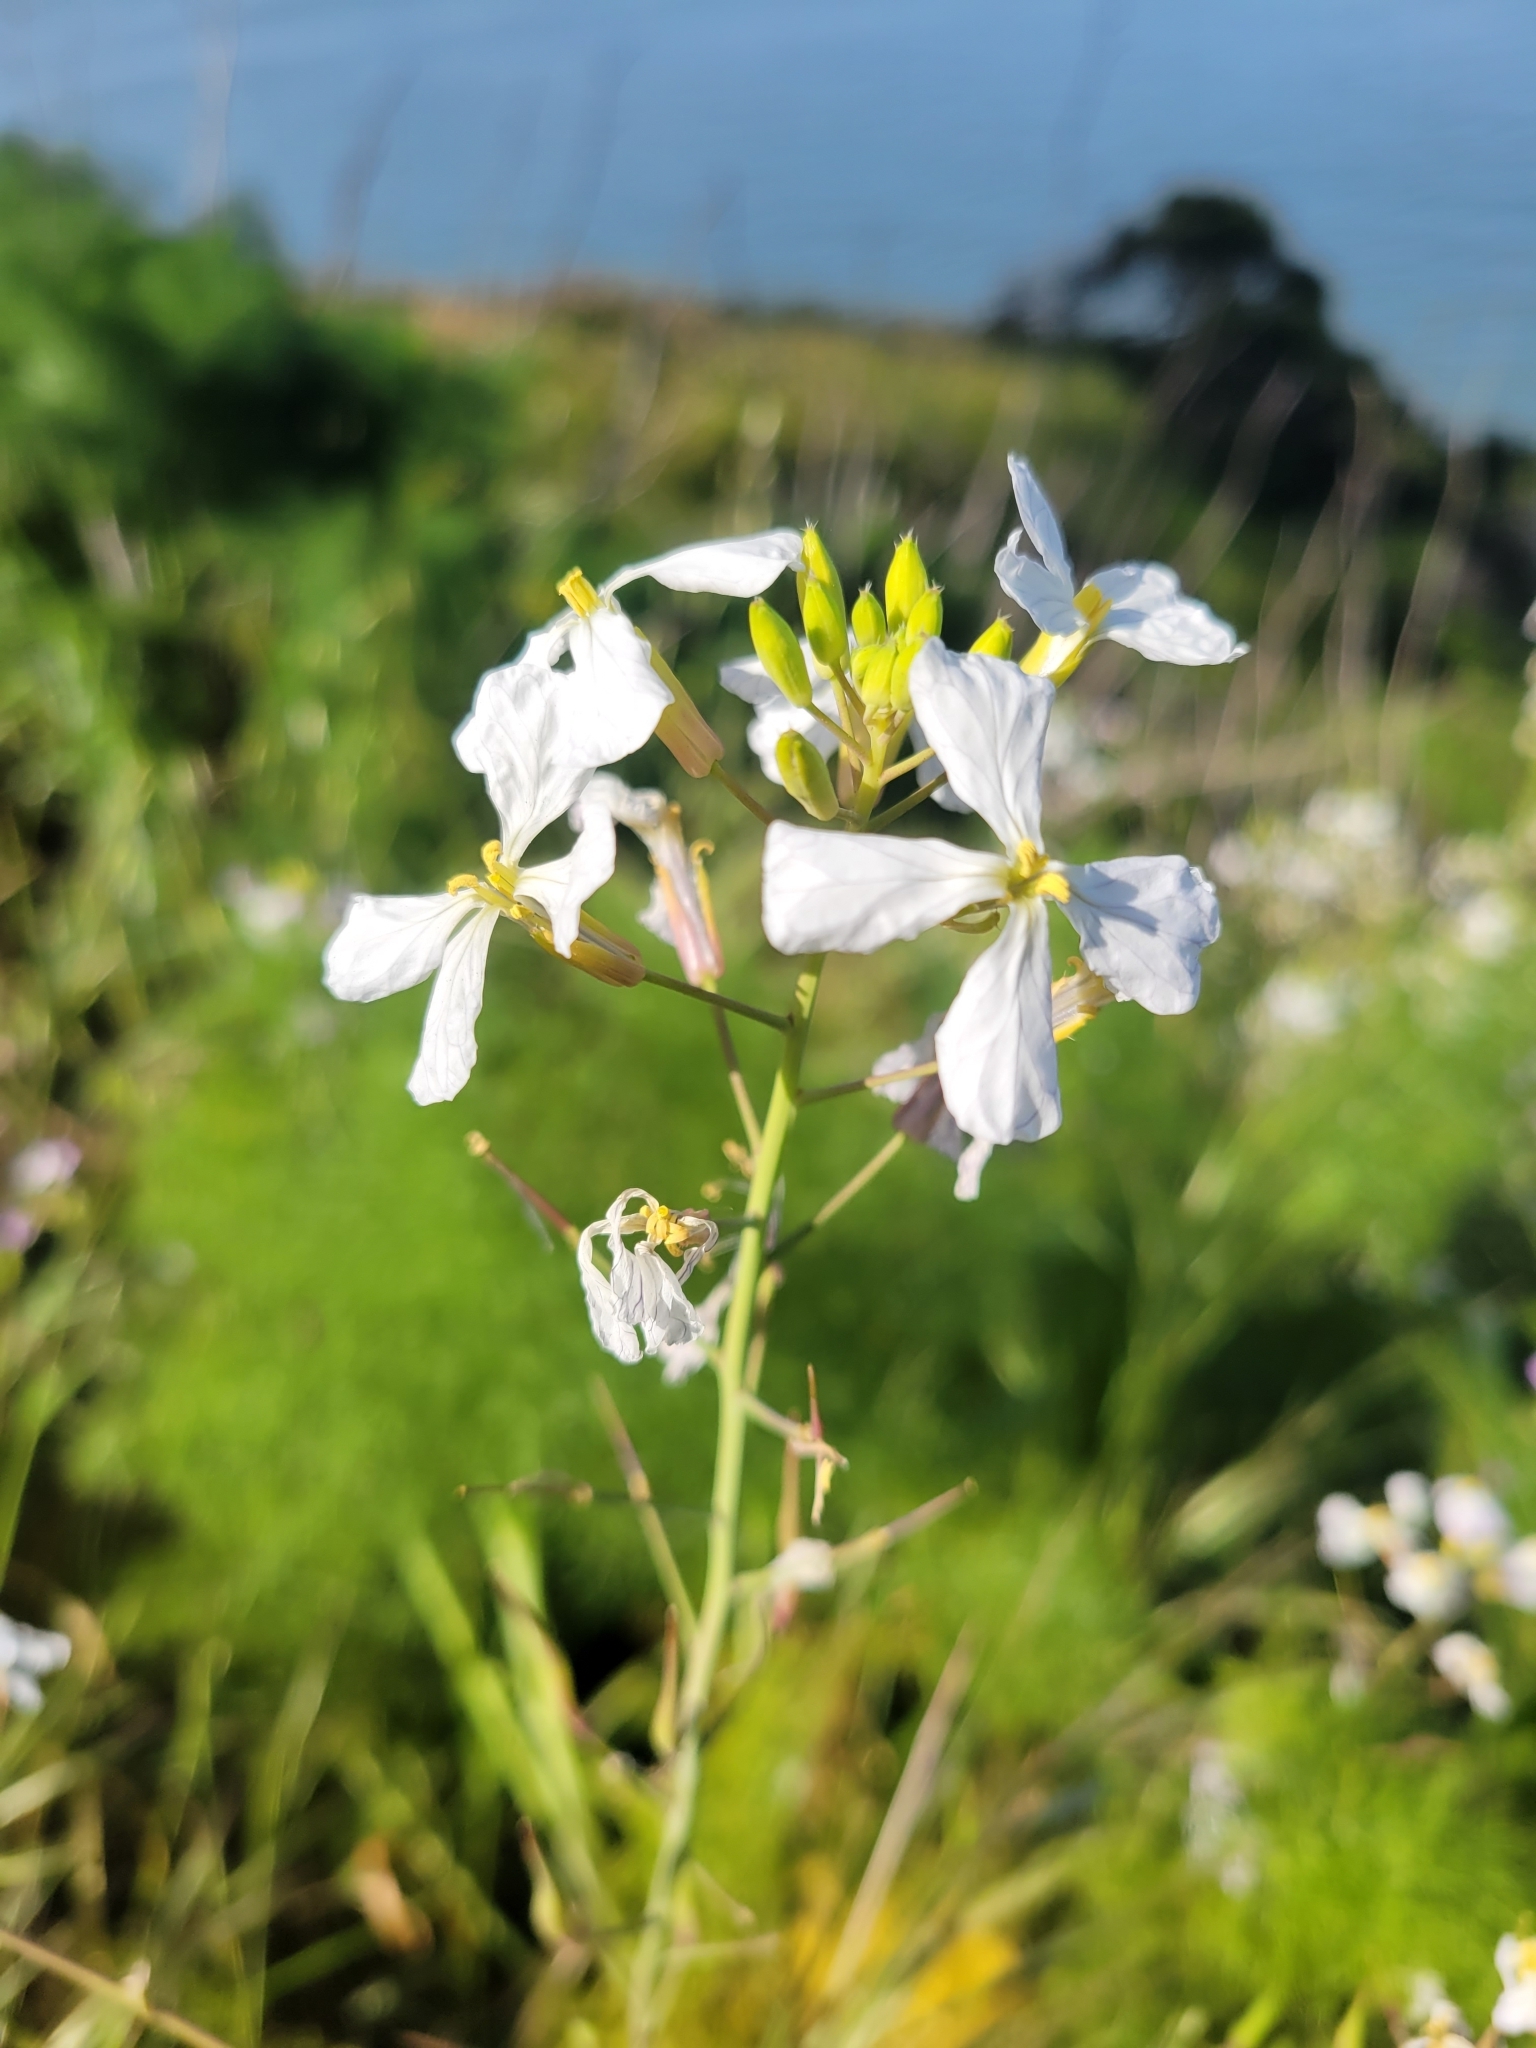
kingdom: Plantae
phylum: Tracheophyta
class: Magnoliopsida
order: Brassicales
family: Brassicaceae
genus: Raphanus
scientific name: Raphanus sativus
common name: Cultivated radish
